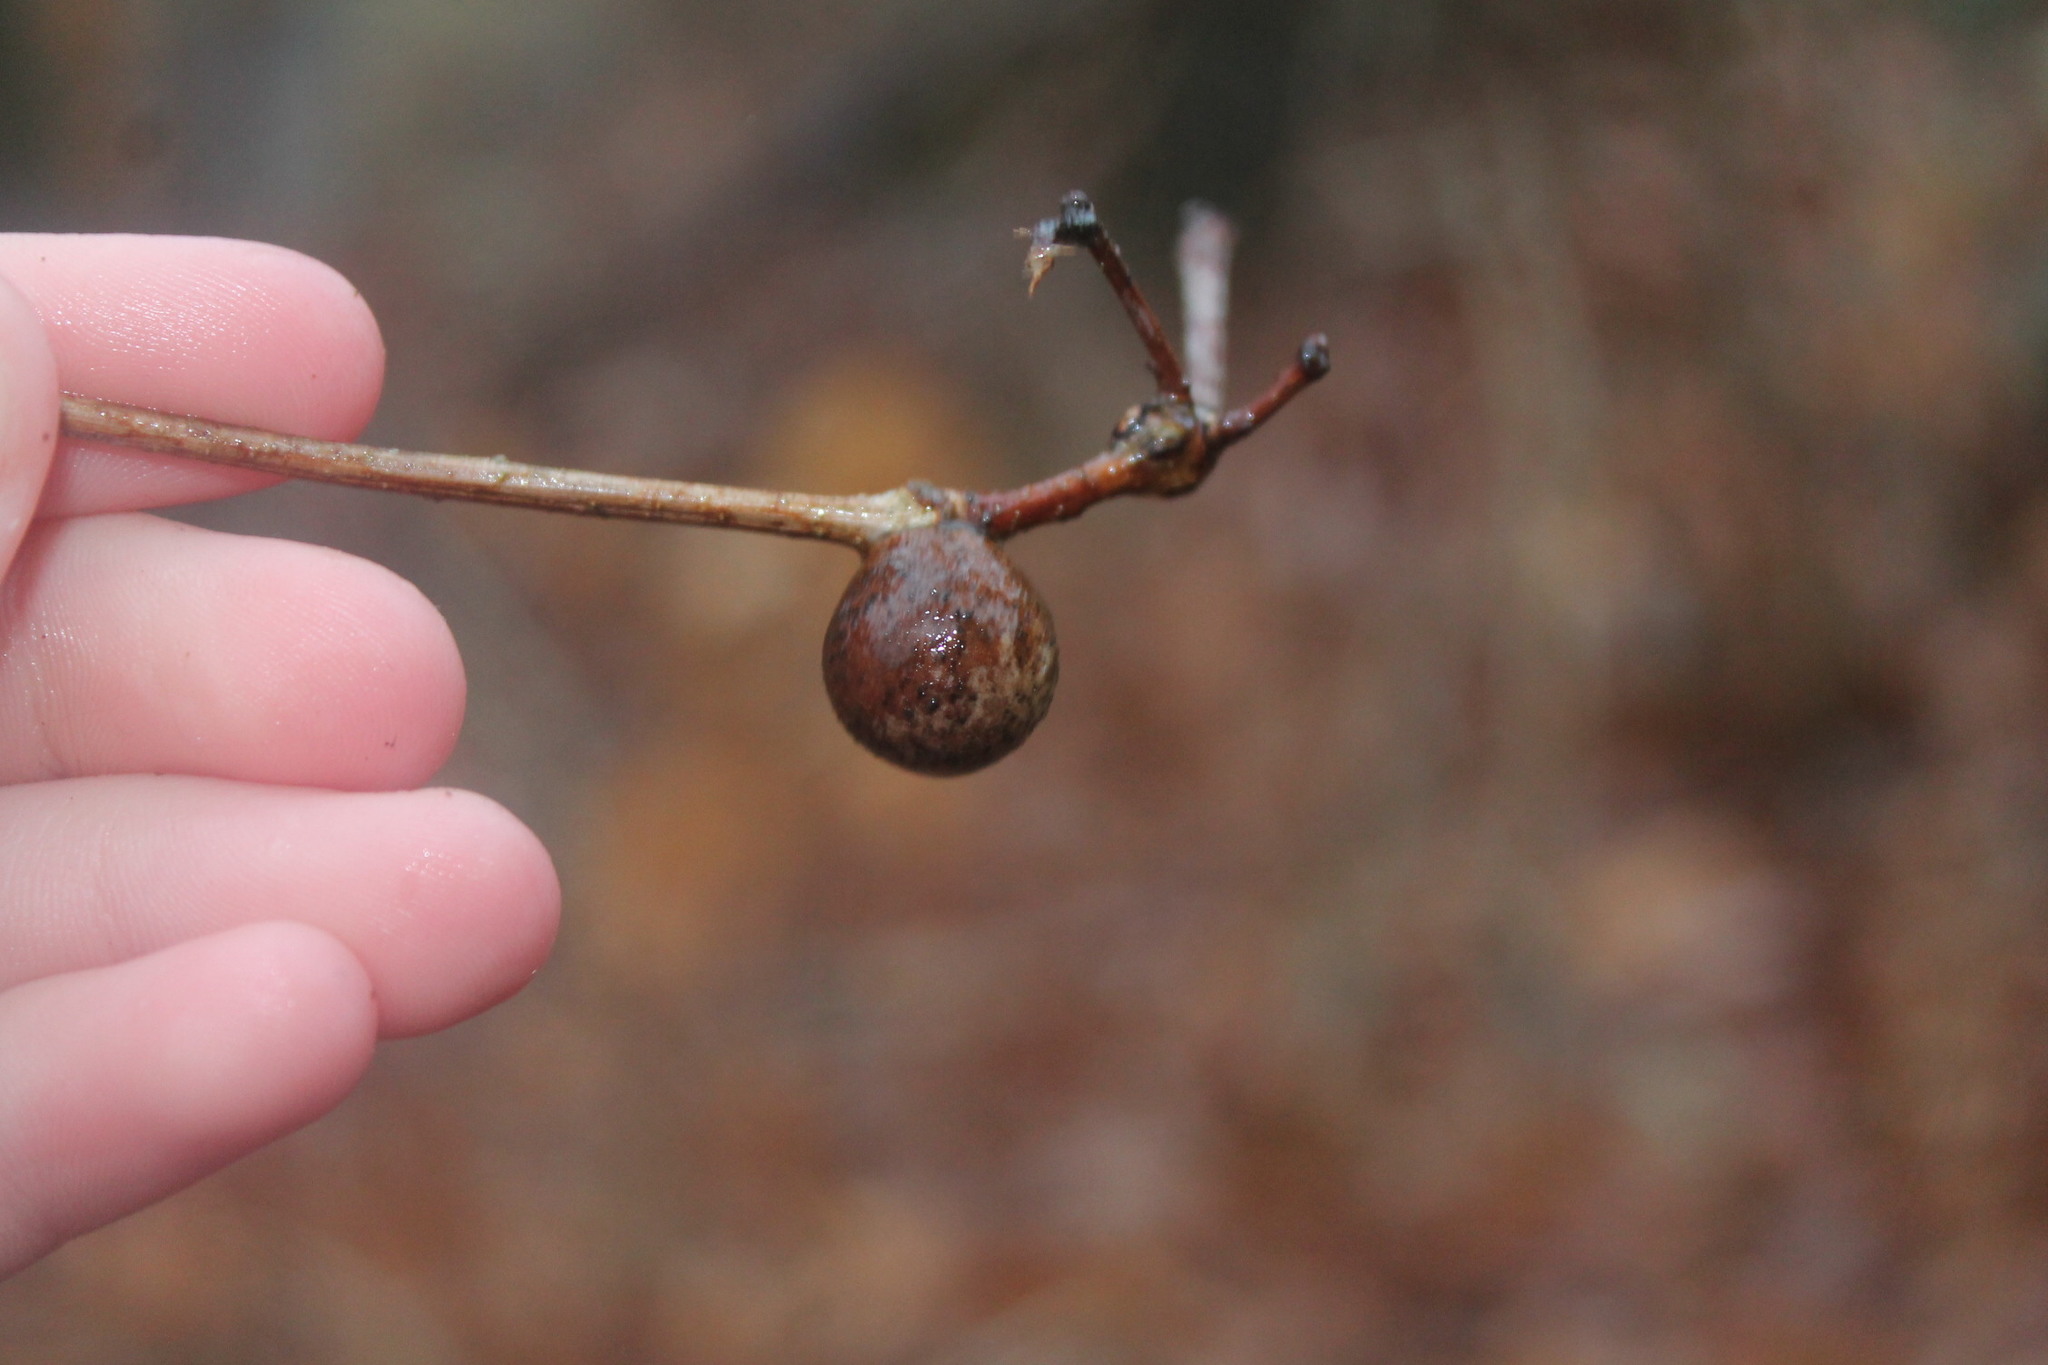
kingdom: Animalia
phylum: Arthropoda
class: Insecta
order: Hymenoptera
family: Cynipidae
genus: Disholcaspis
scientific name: Disholcaspis quercusglobulus
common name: Round bullet gall wasp
